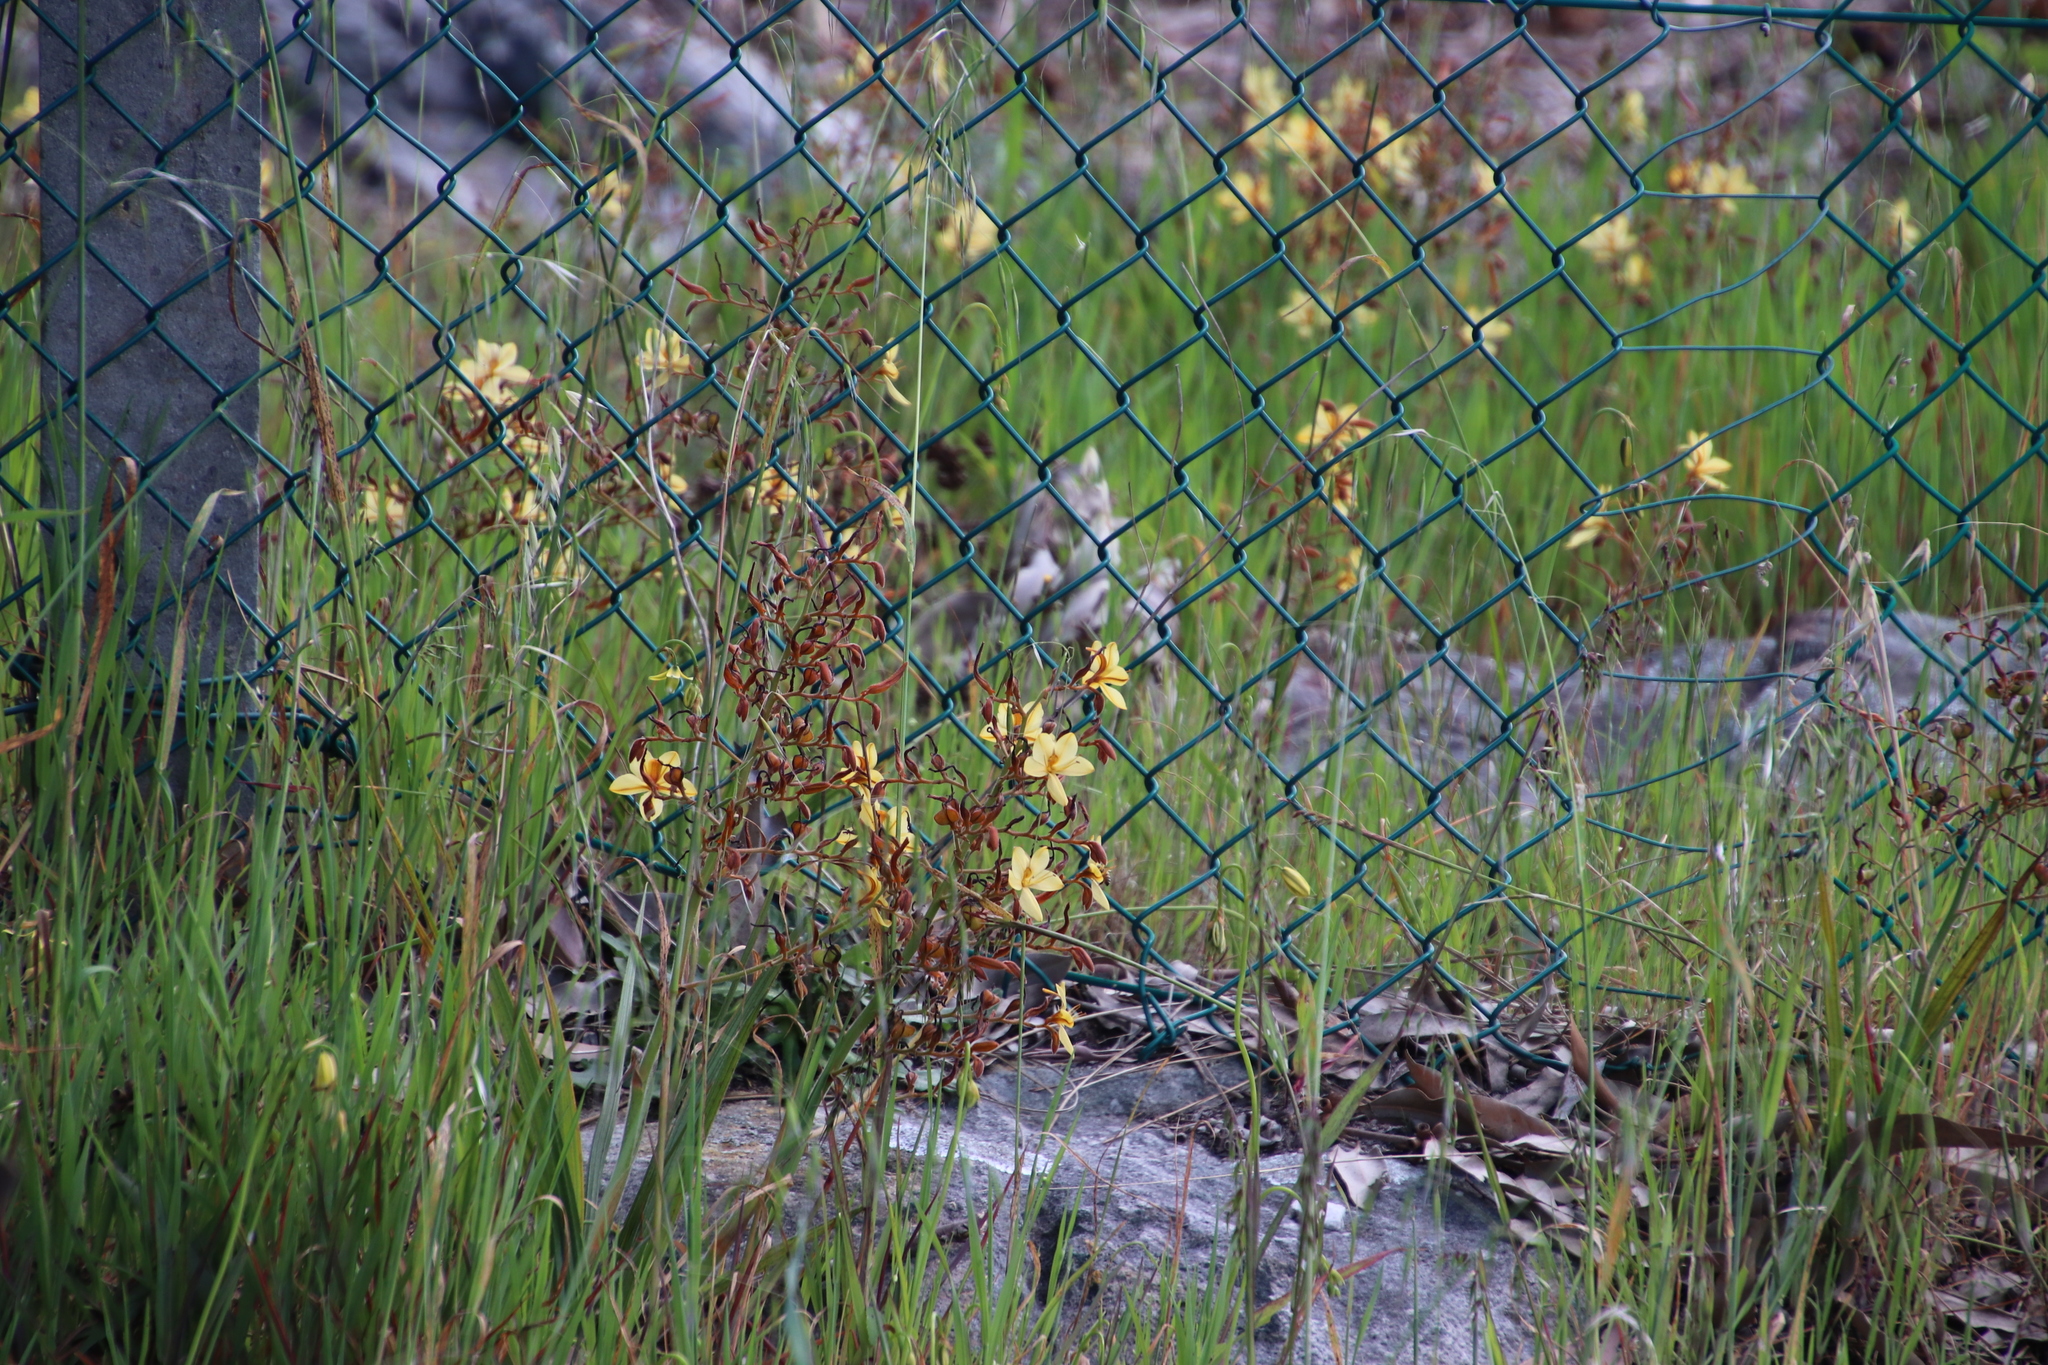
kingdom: Plantae
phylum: Tracheophyta
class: Liliopsida
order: Commelinales
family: Haemodoraceae
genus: Wachendorfia
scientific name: Wachendorfia paniculata
